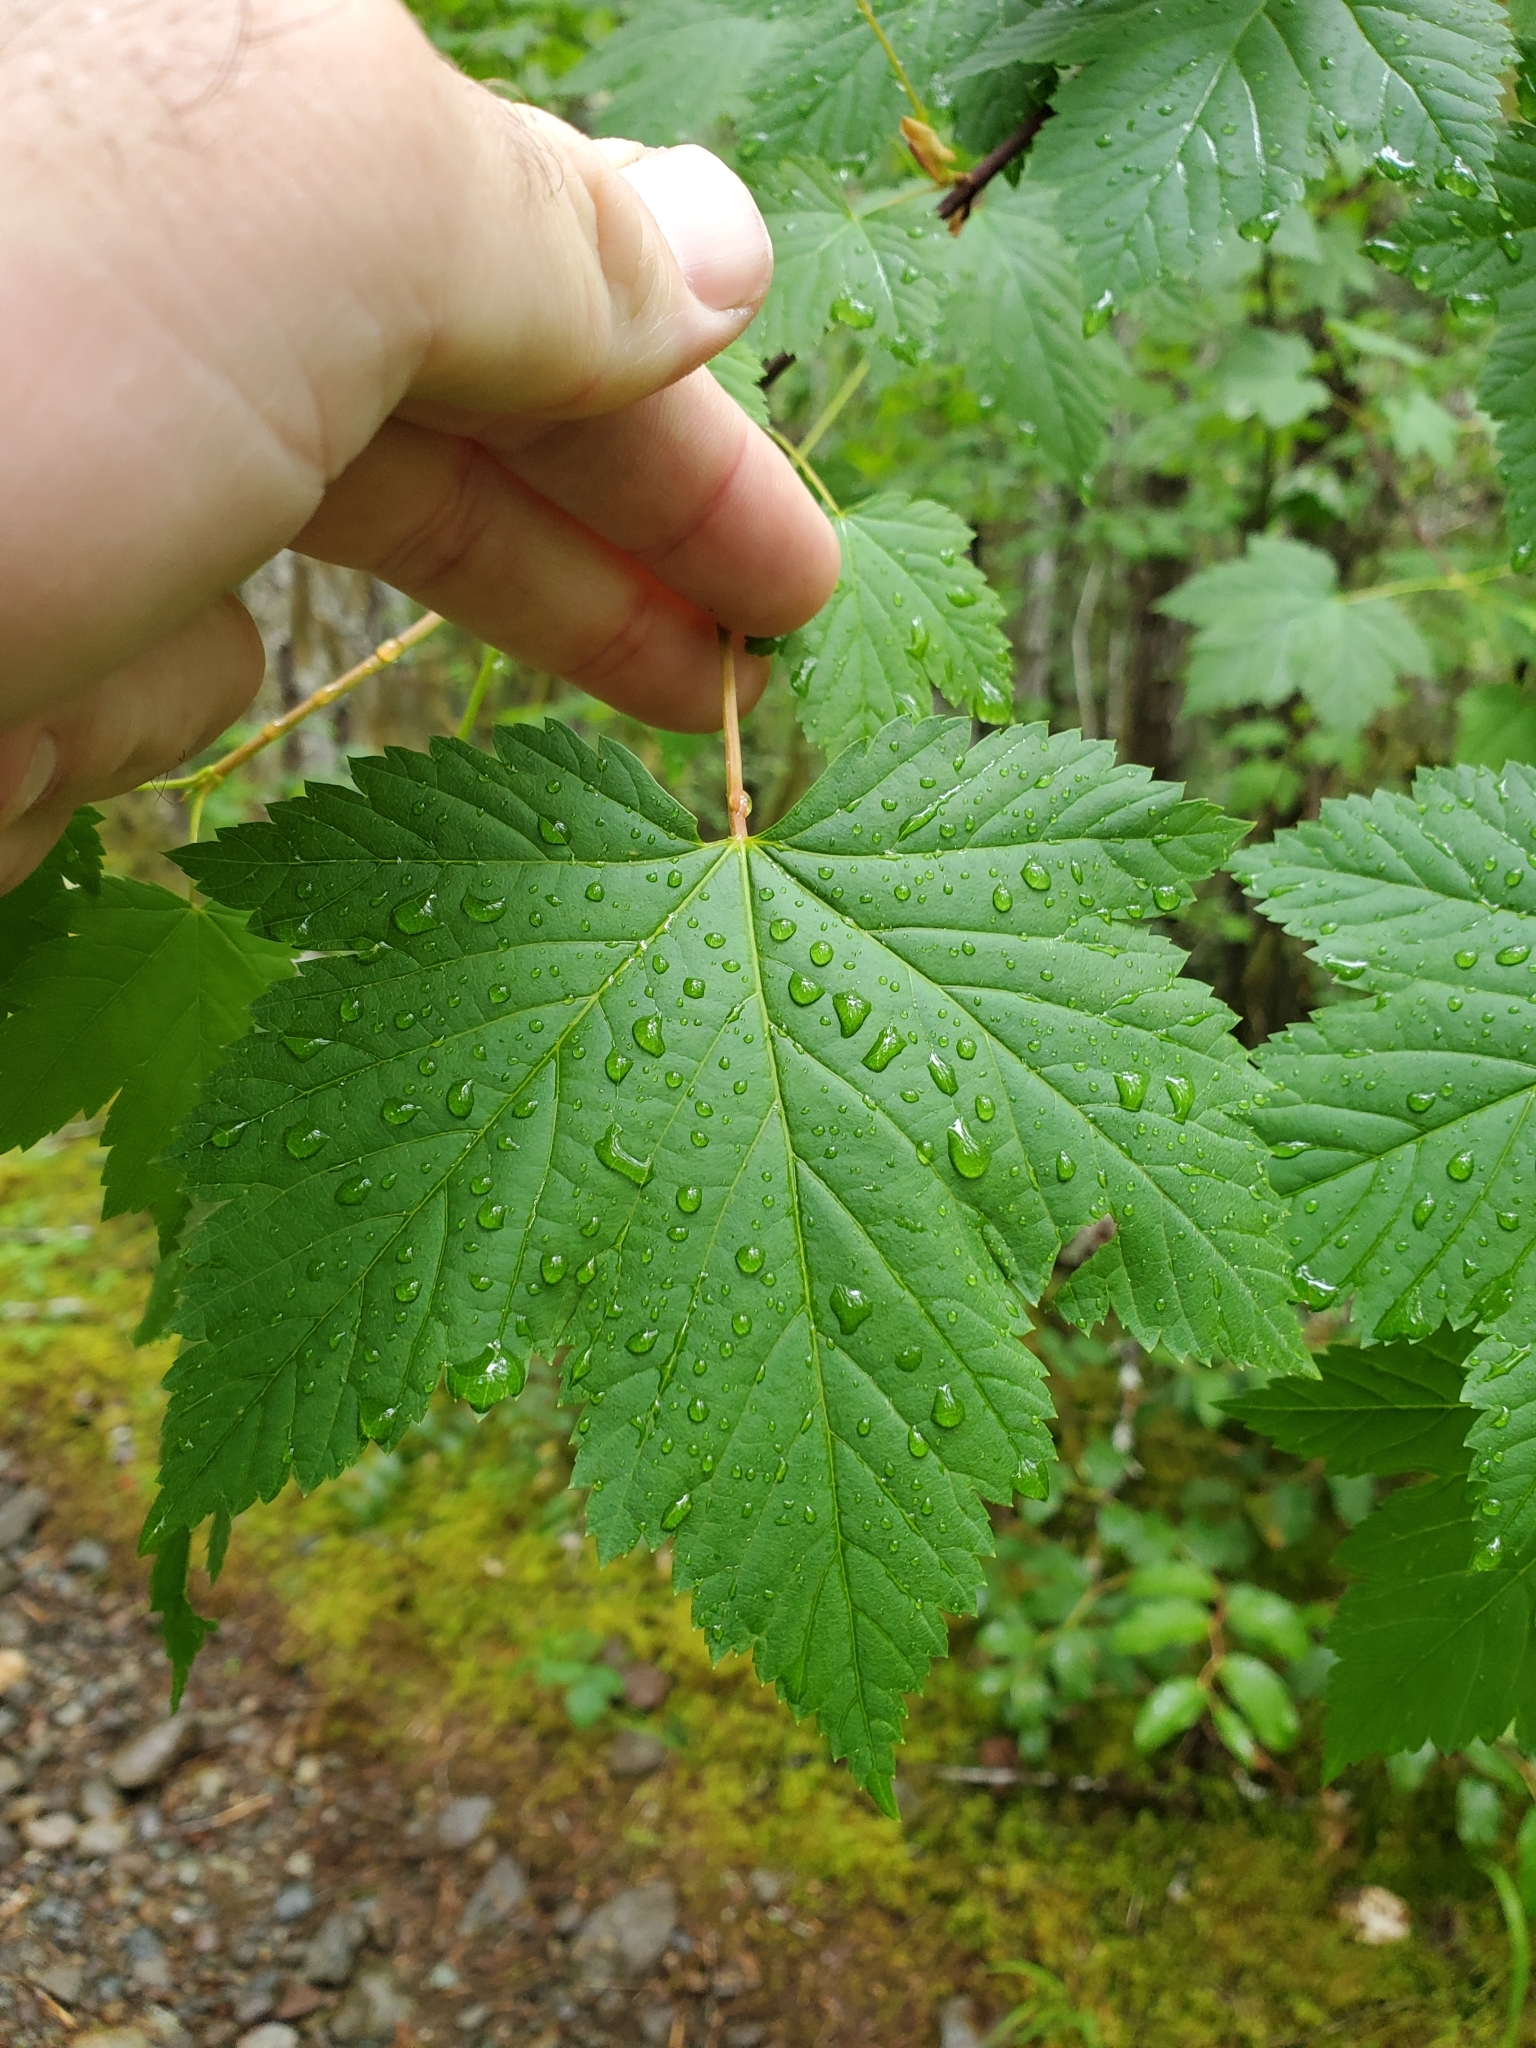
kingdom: Plantae
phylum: Tracheophyta
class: Magnoliopsida
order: Sapindales
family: Sapindaceae
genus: Acer
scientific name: Acer glabrum
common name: Rocky mountain maple
